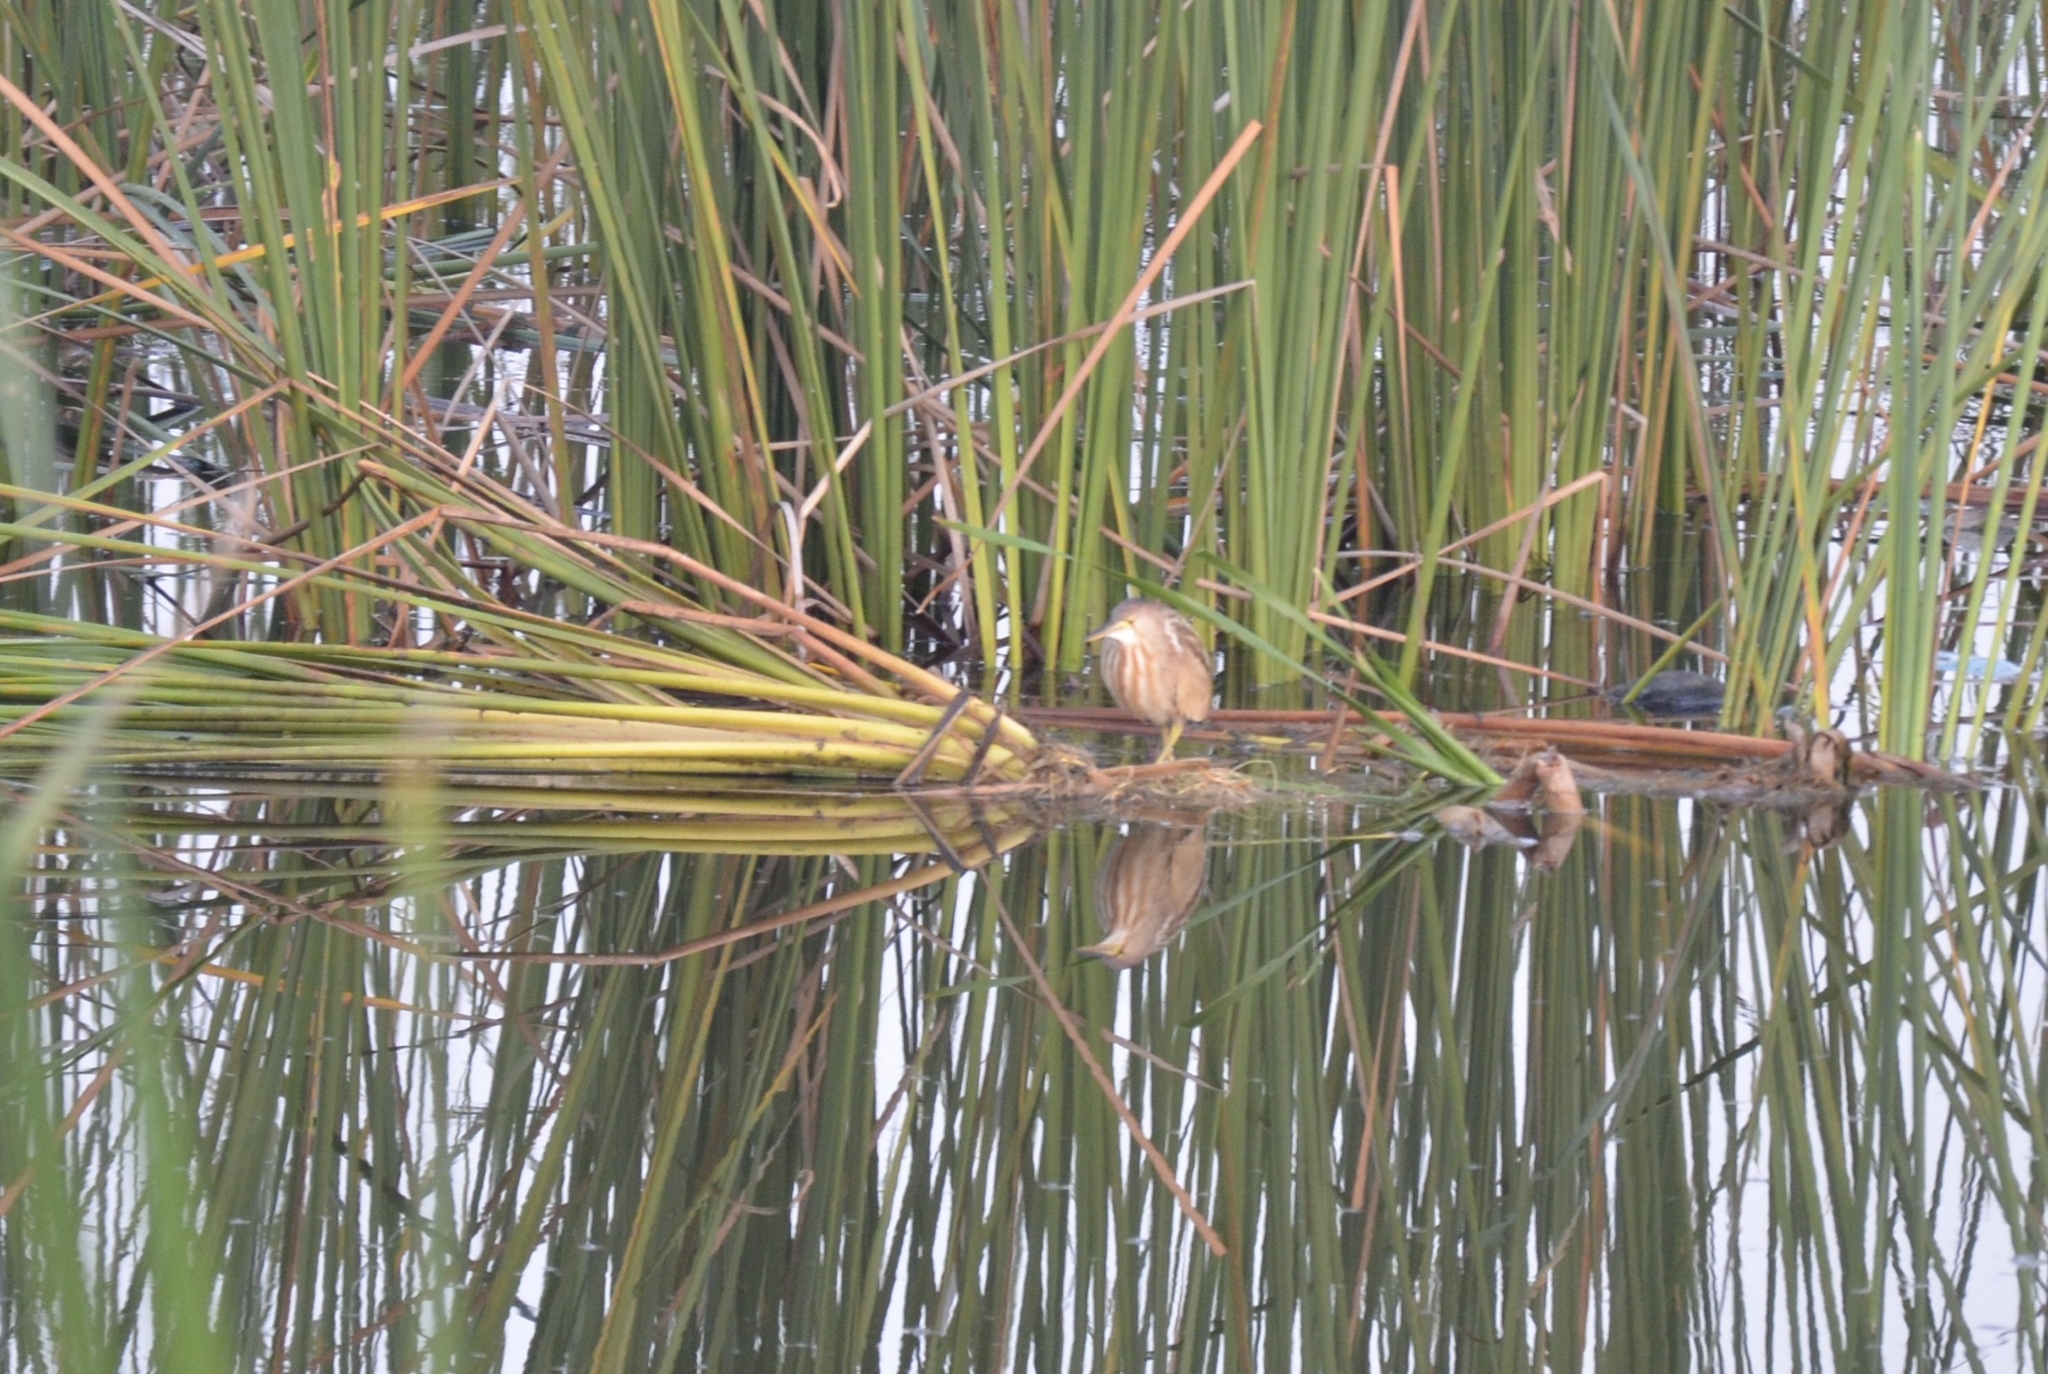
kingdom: Animalia
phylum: Chordata
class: Aves
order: Pelecaniformes
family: Ardeidae
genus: Ixobrychus
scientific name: Ixobrychus sinensis
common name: Yellow bittern
